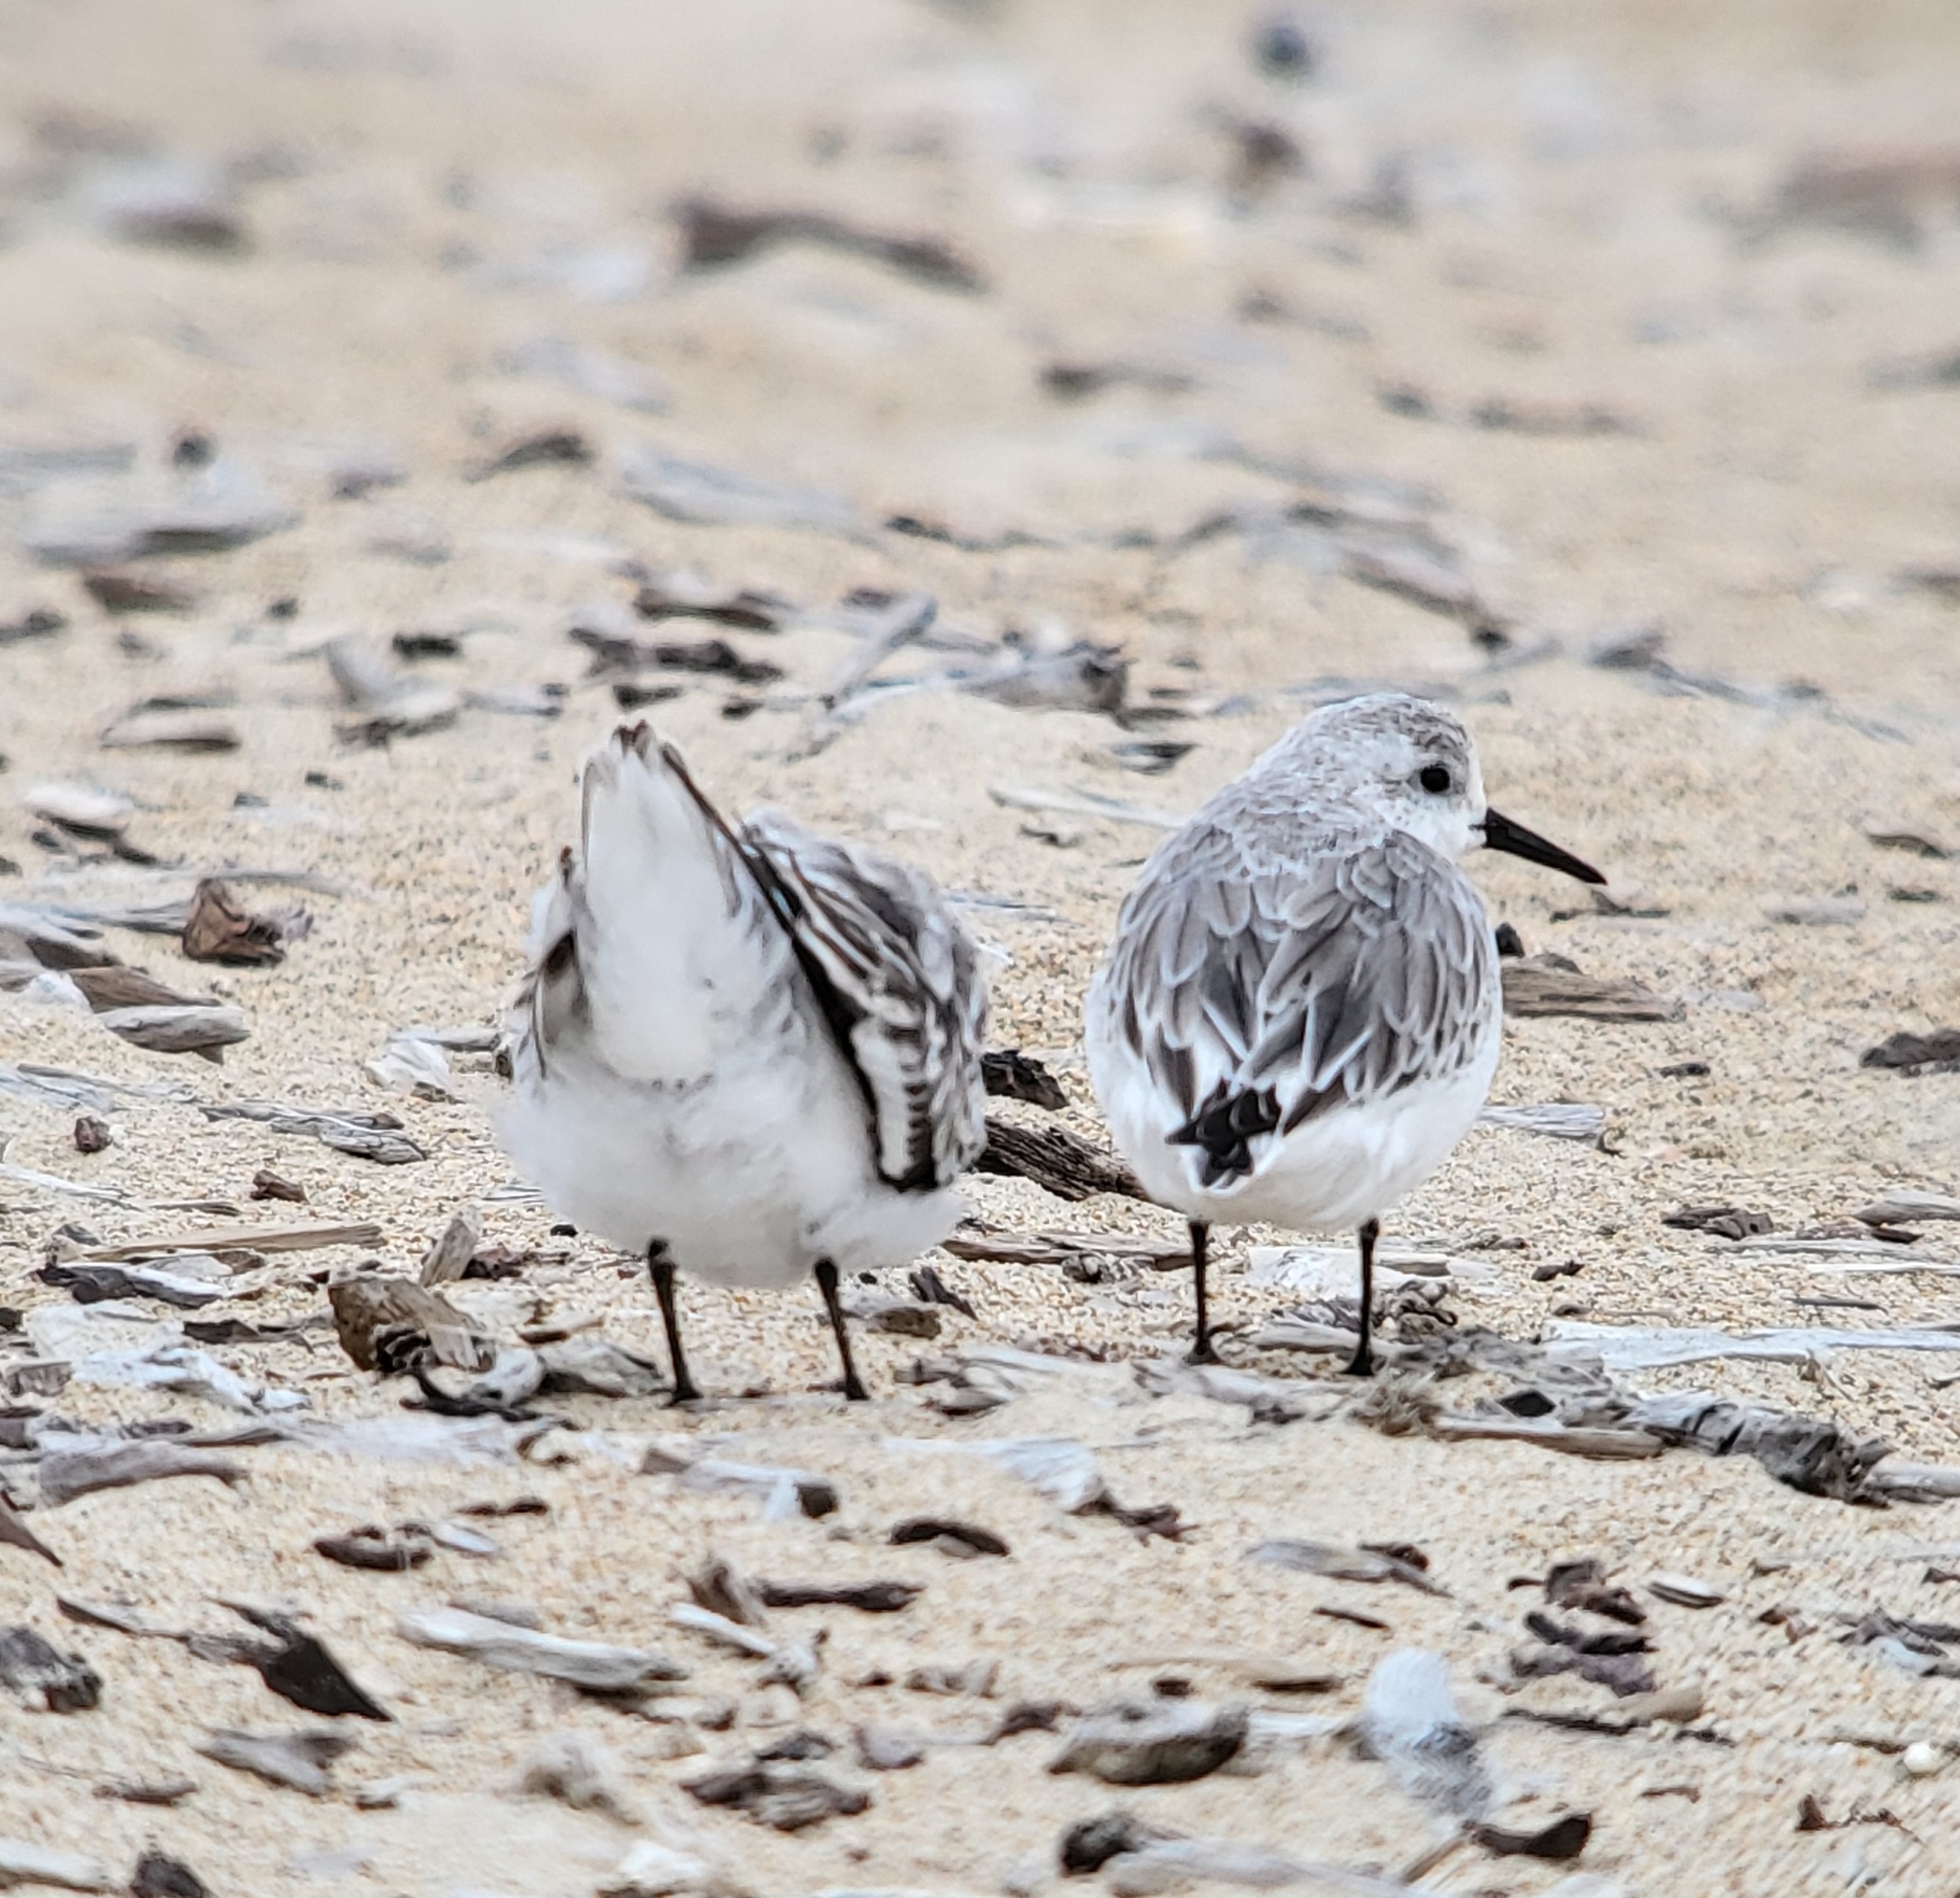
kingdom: Animalia
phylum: Chordata
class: Aves
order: Charadriiformes
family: Scolopacidae
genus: Calidris
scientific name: Calidris alba
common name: Sanderling
